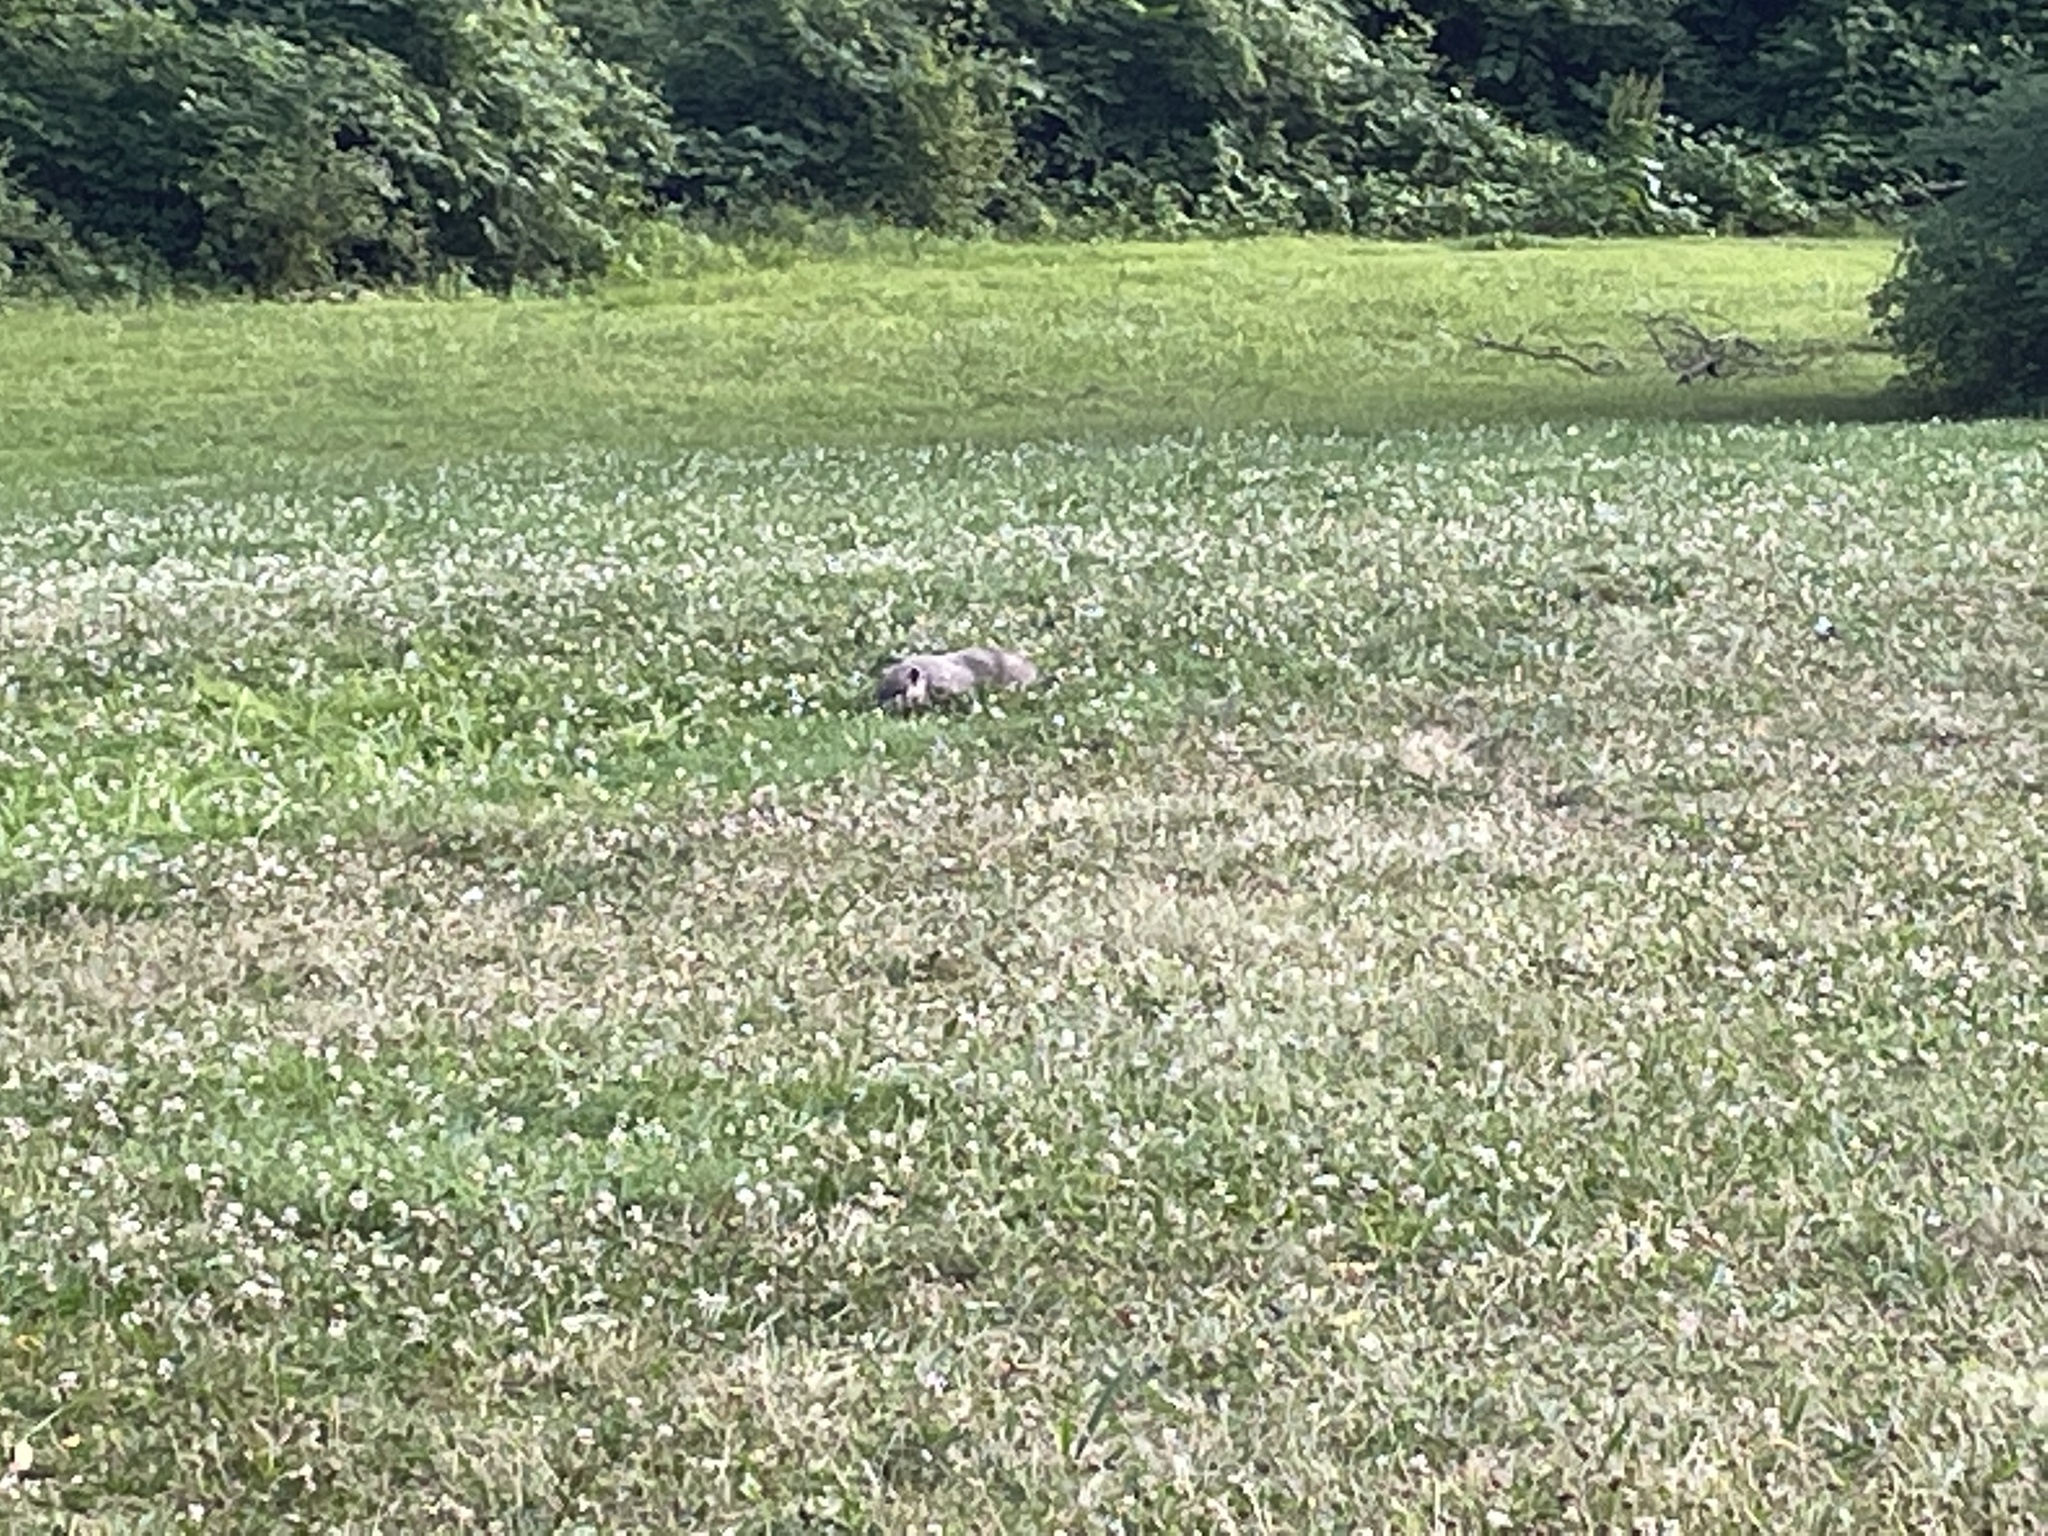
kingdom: Animalia
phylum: Chordata
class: Mammalia
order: Rodentia
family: Sciuridae
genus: Marmota
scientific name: Marmota monax
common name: Groundhog
